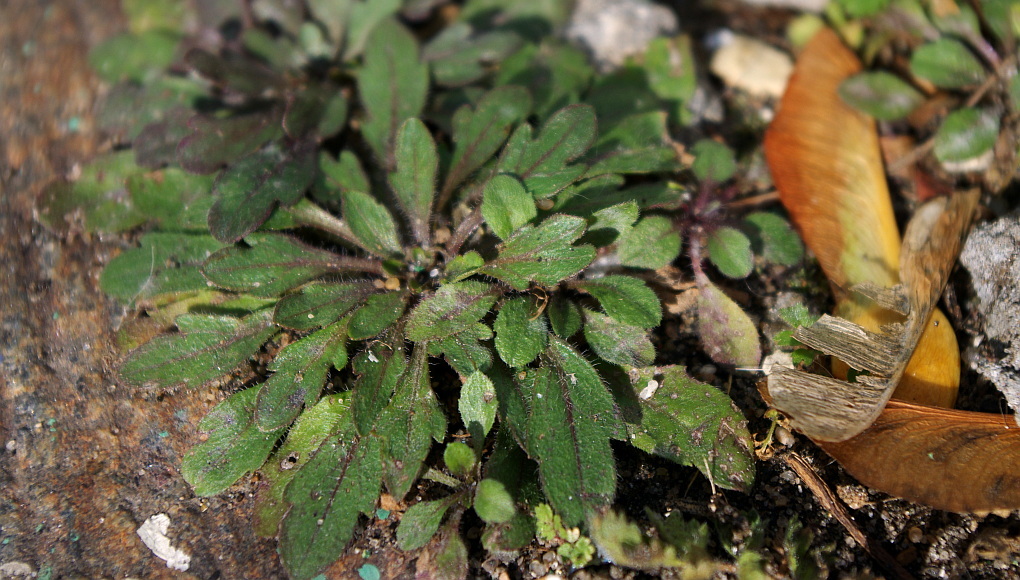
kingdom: Plantae
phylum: Tracheophyta
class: Magnoliopsida
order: Asterales
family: Asteraceae
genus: Erigeron
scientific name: Erigeron canadensis
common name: Canadian fleabane
